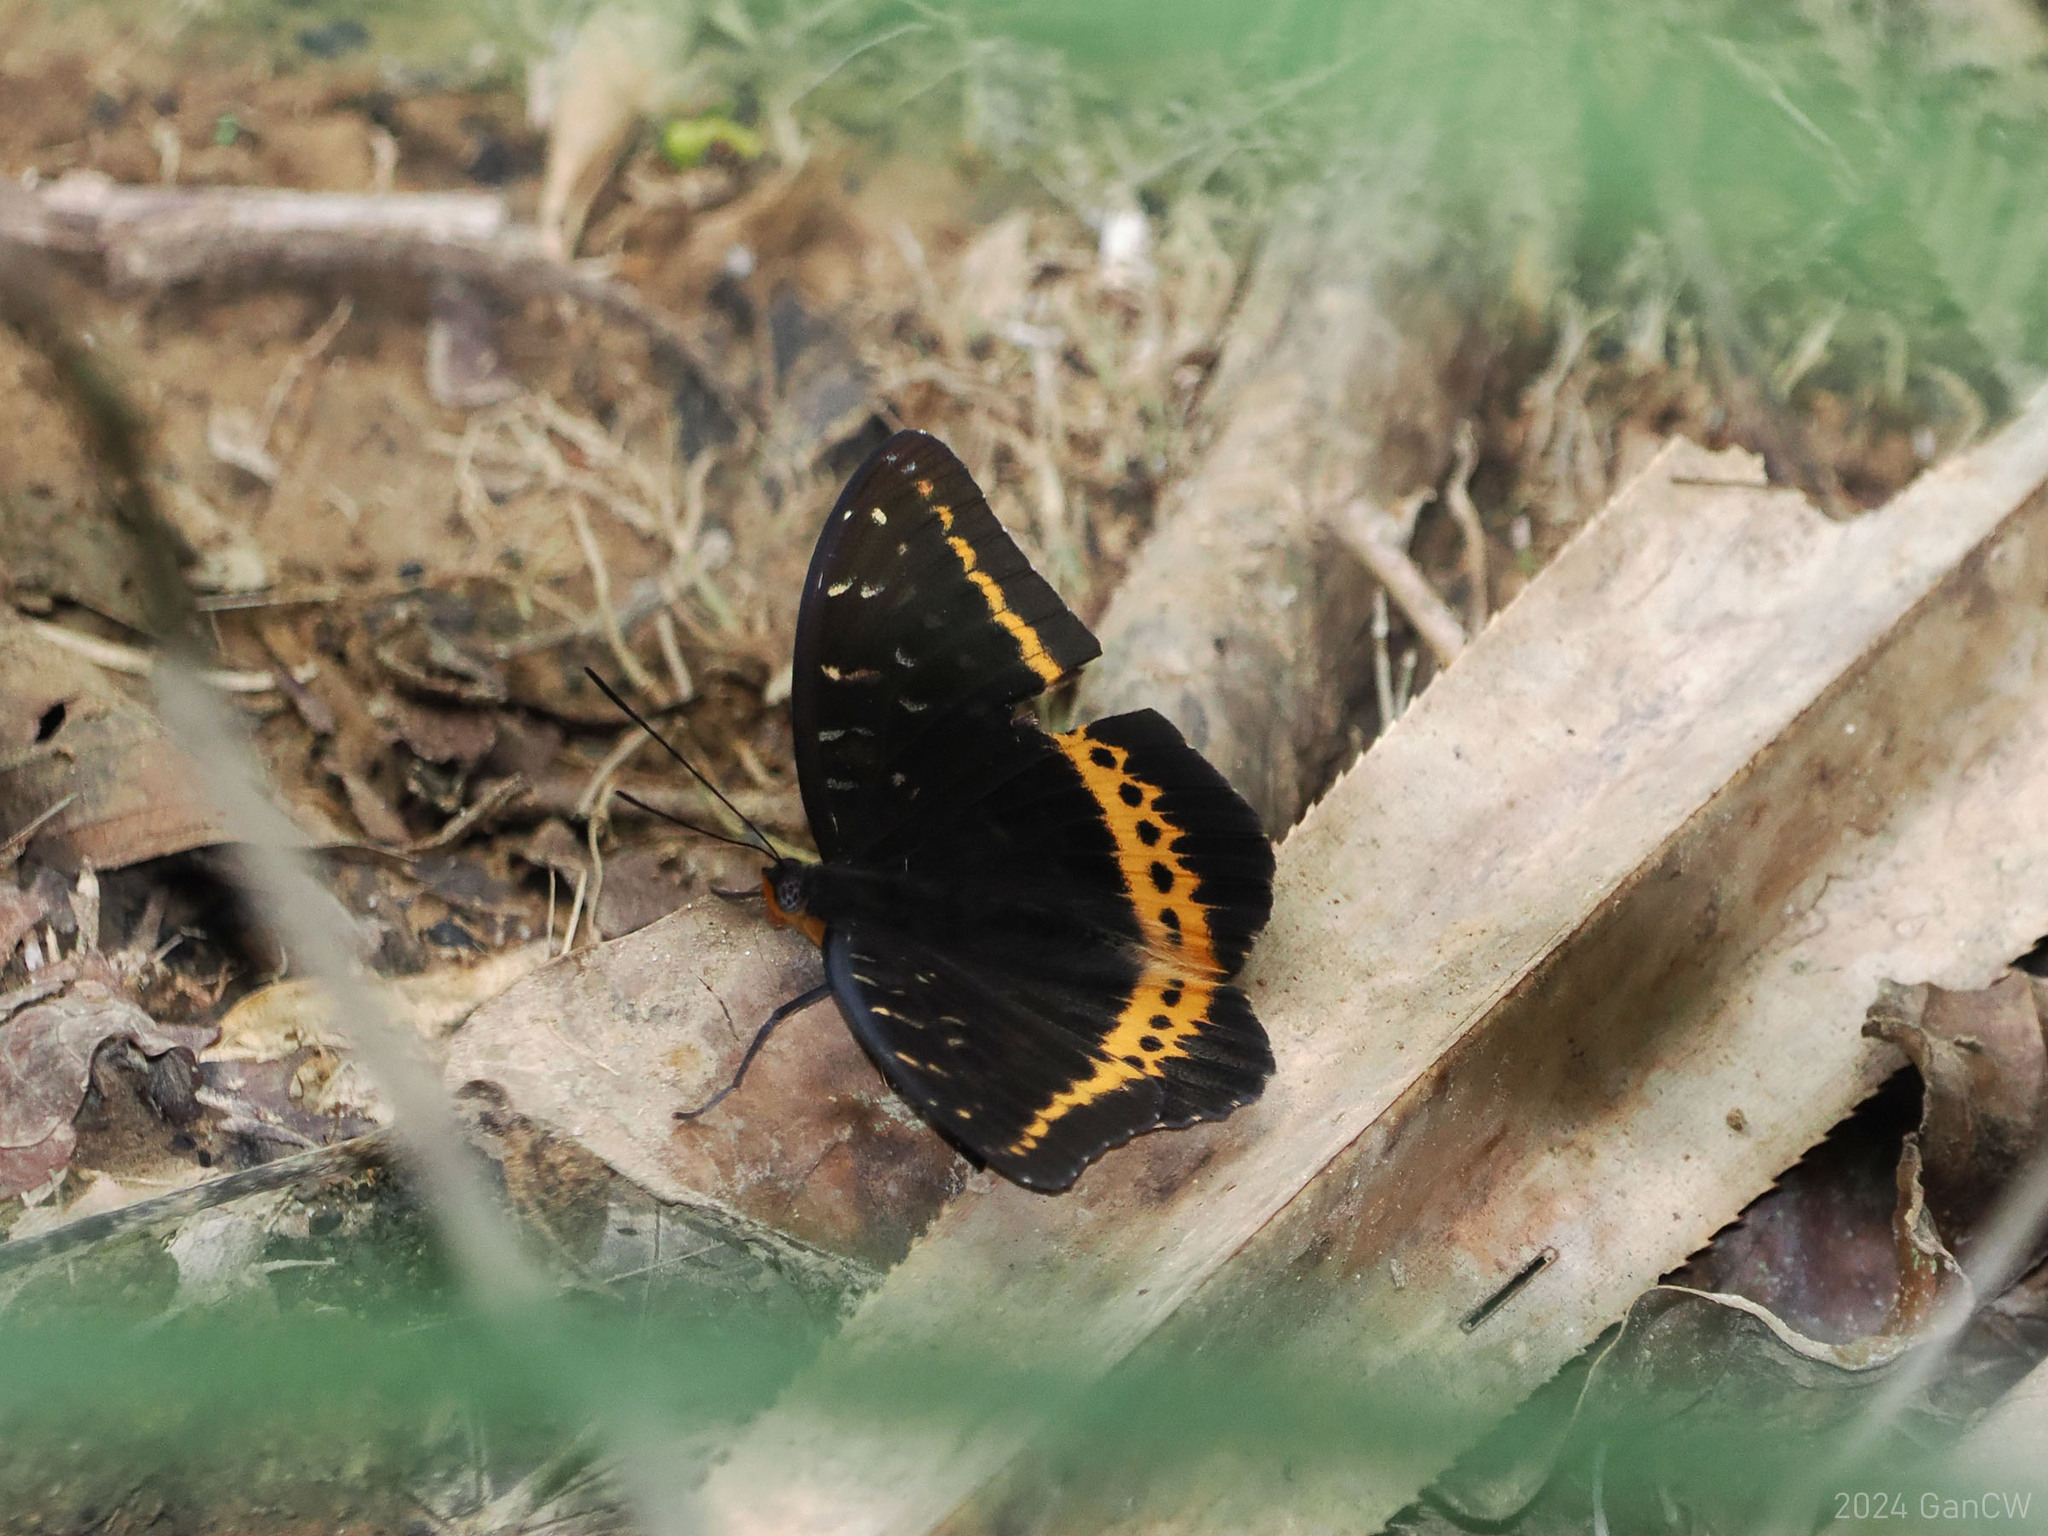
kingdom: Animalia
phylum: Arthropoda
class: Insecta
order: Lepidoptera
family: Nymphalidae
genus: Lexias
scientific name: Lexias panopus
